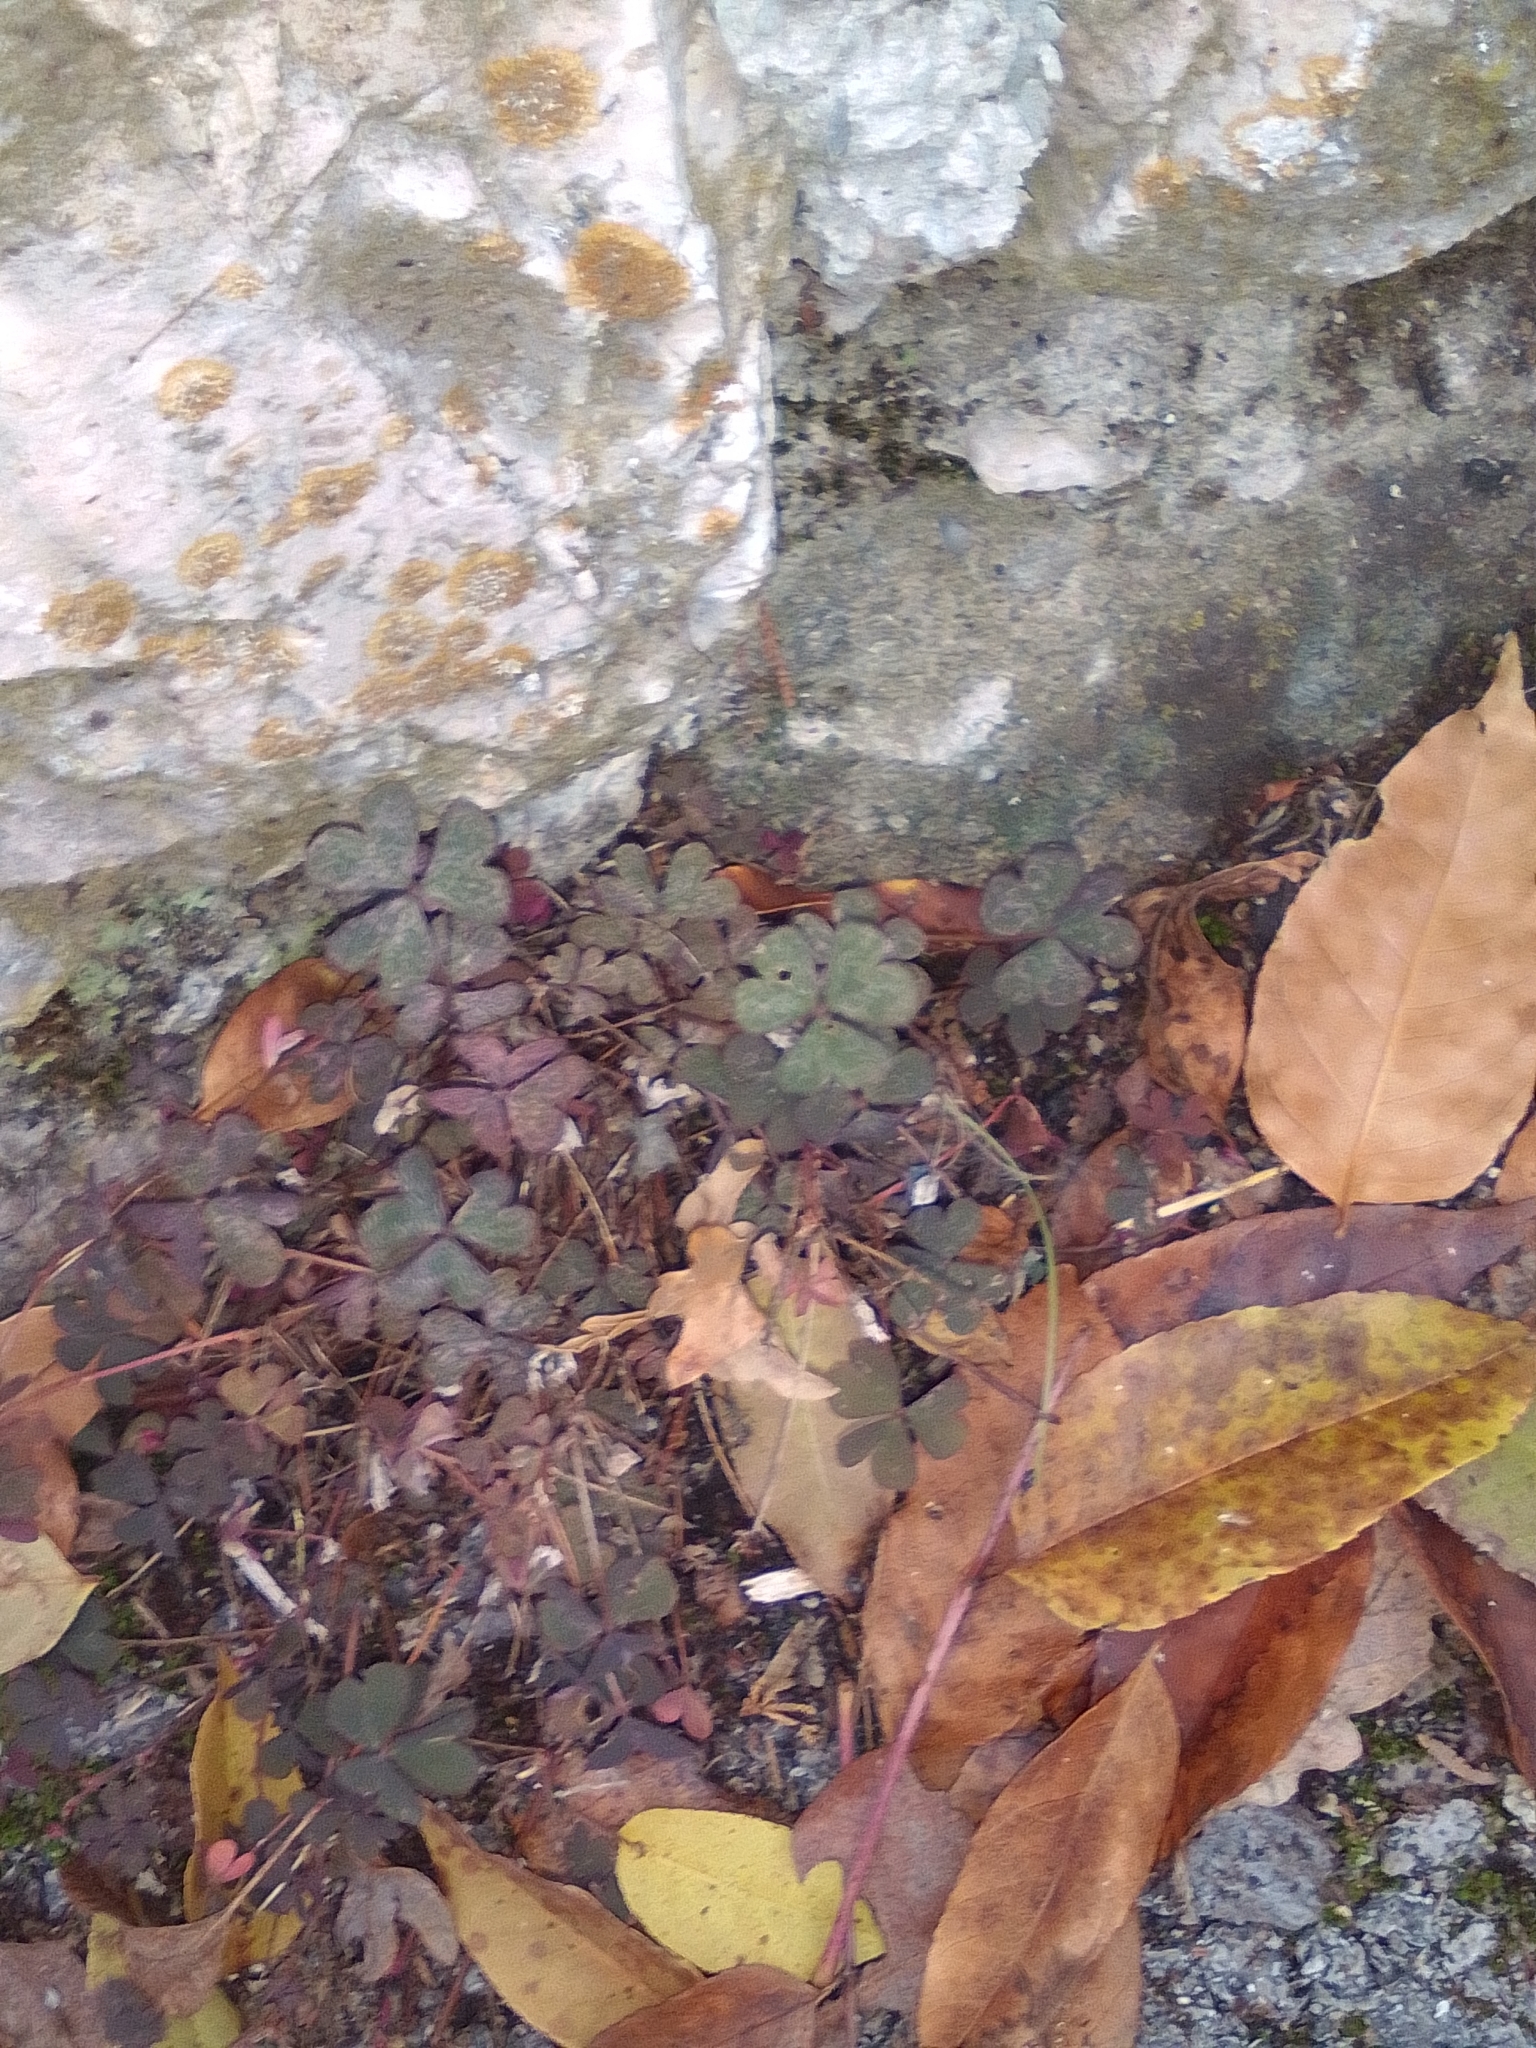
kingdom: Plantae
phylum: Tracheophyta
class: Magnoliopsida
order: Oxalidales
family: Oxalidaceae
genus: Oxalis
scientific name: Oxalis corniculata
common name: Procumbent yellow-sorrel
